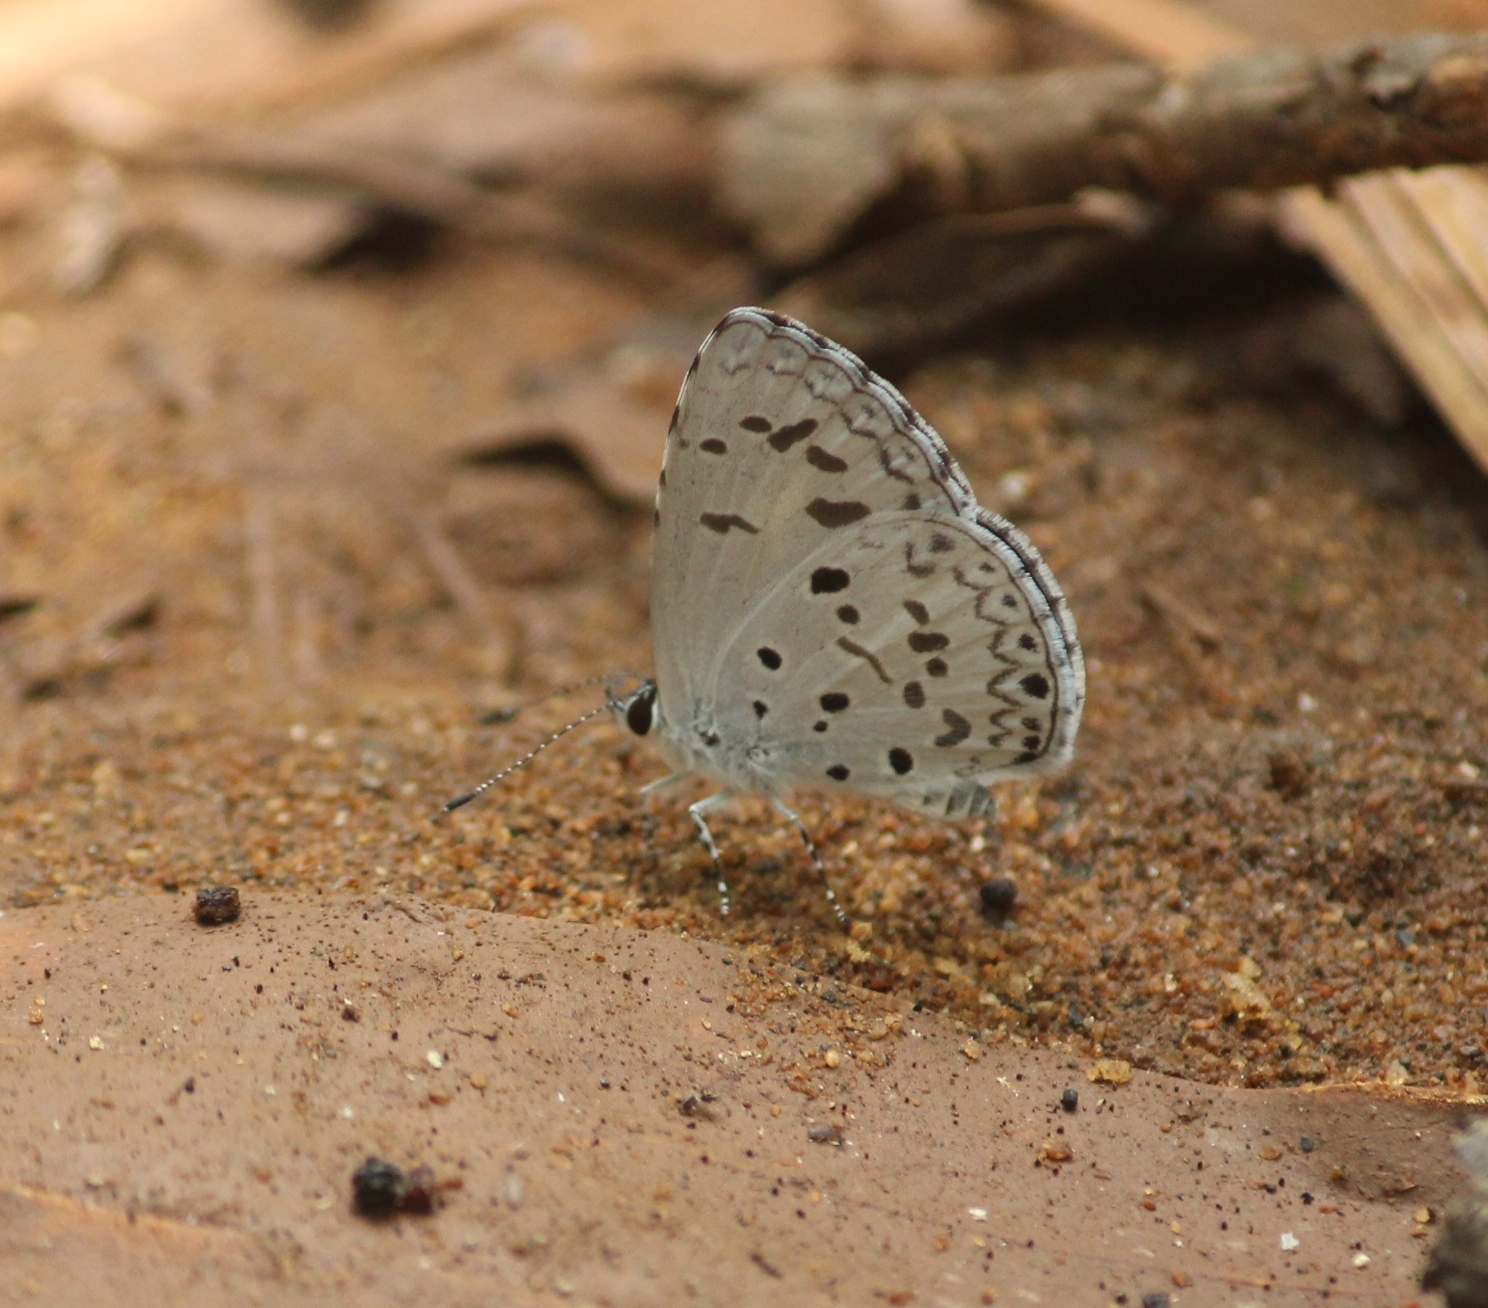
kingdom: Animalia
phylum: Arthropoda
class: Insecta
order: Lepidoptera
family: Lycaenidae
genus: Acytolepis
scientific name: Acytolepis puspa
